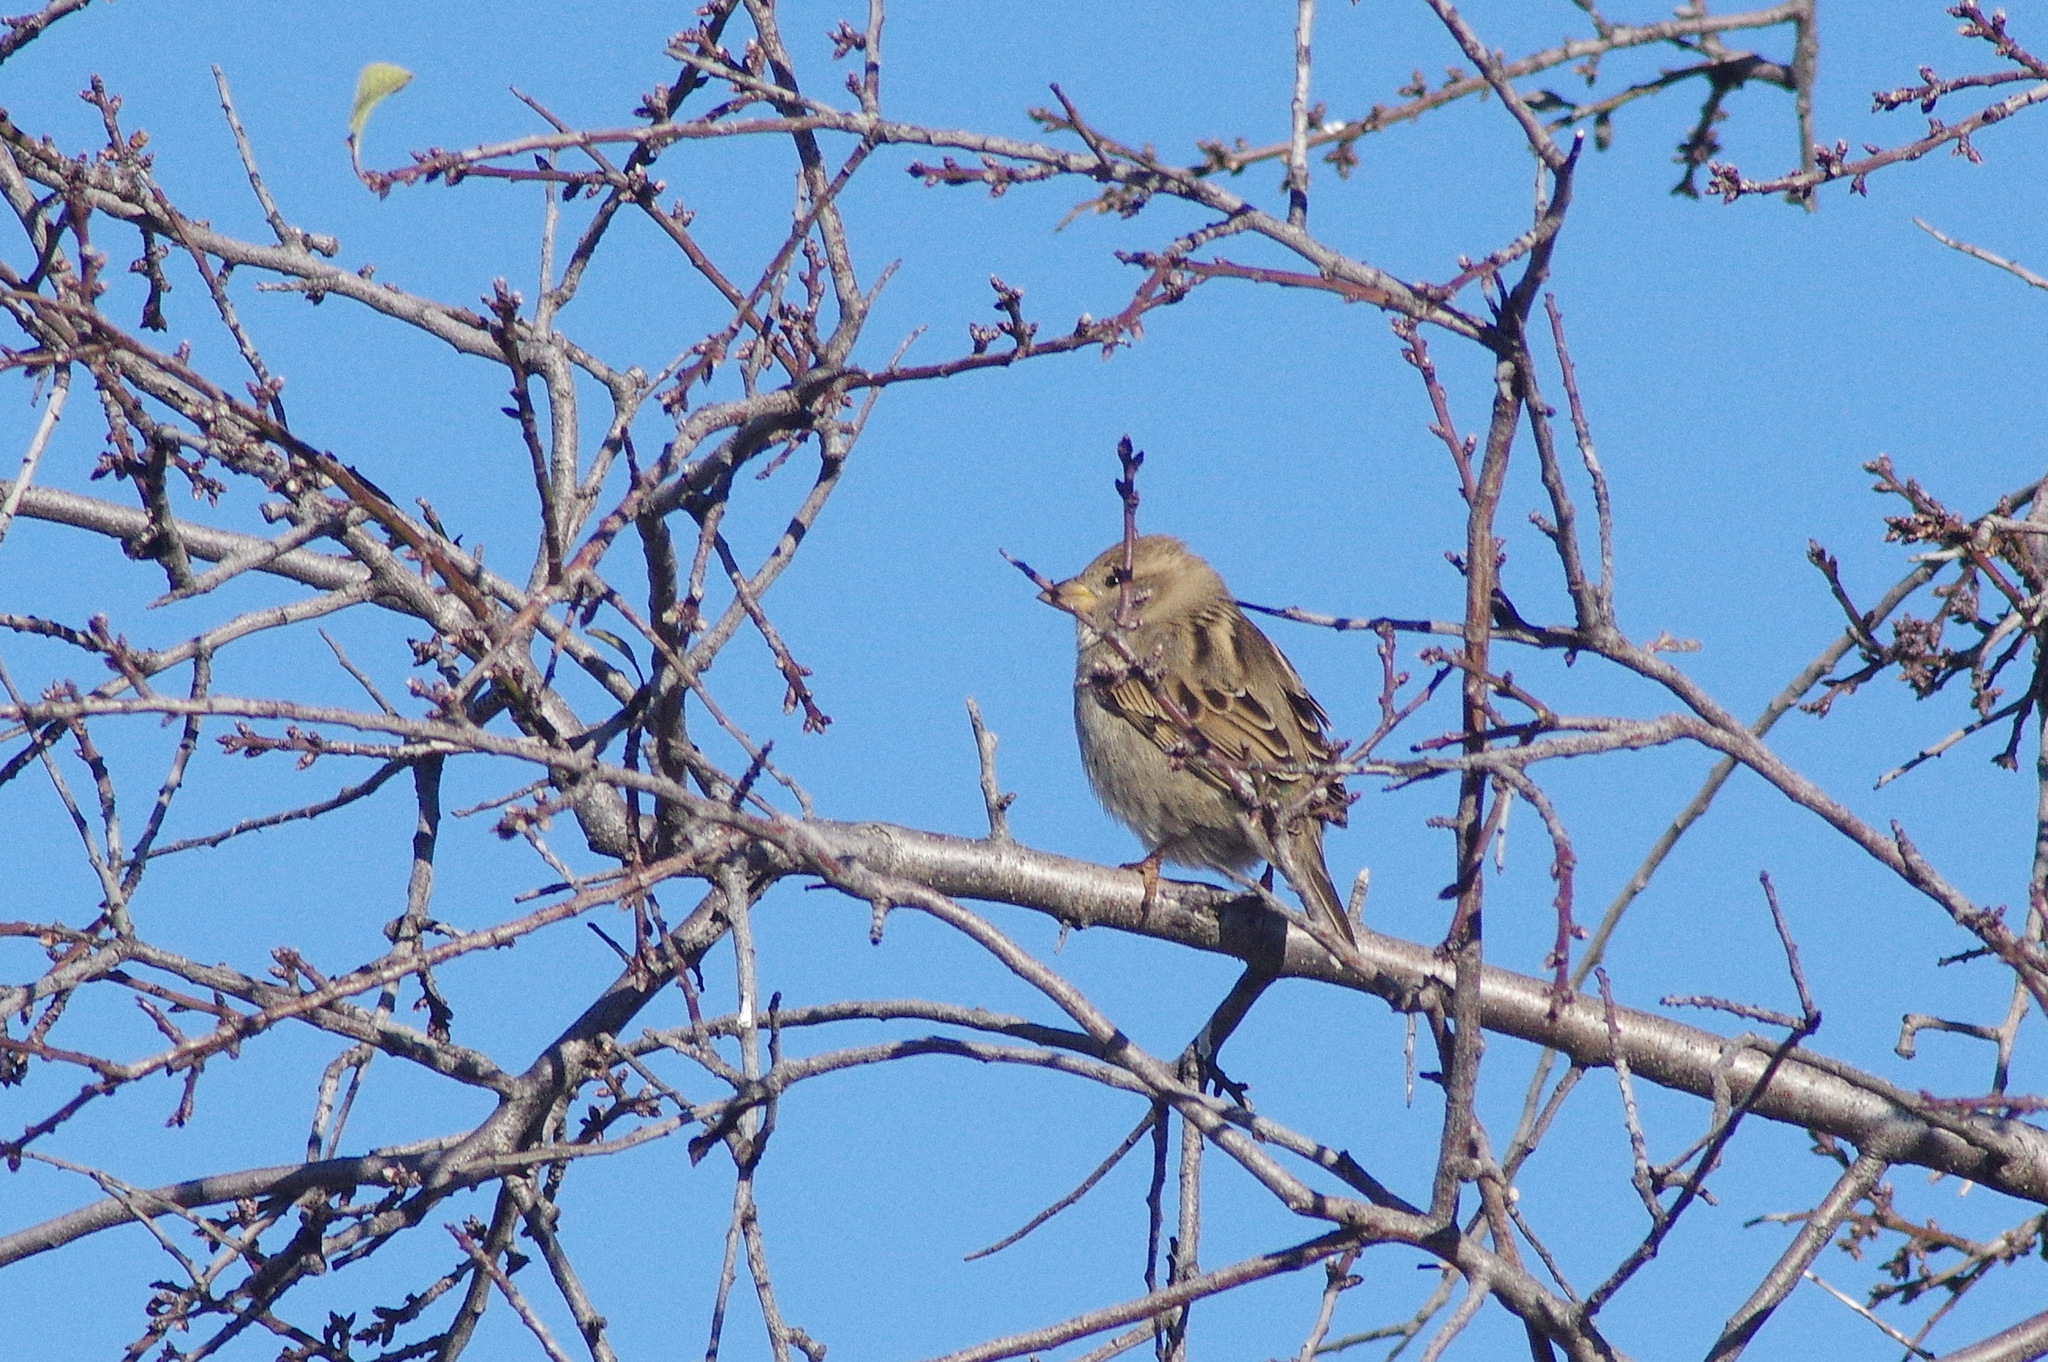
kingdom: Animalia
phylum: Chordata
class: Aves
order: Passeriformes
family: Passeridae
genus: Passer
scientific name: Passer domesticus
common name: House sparrow
